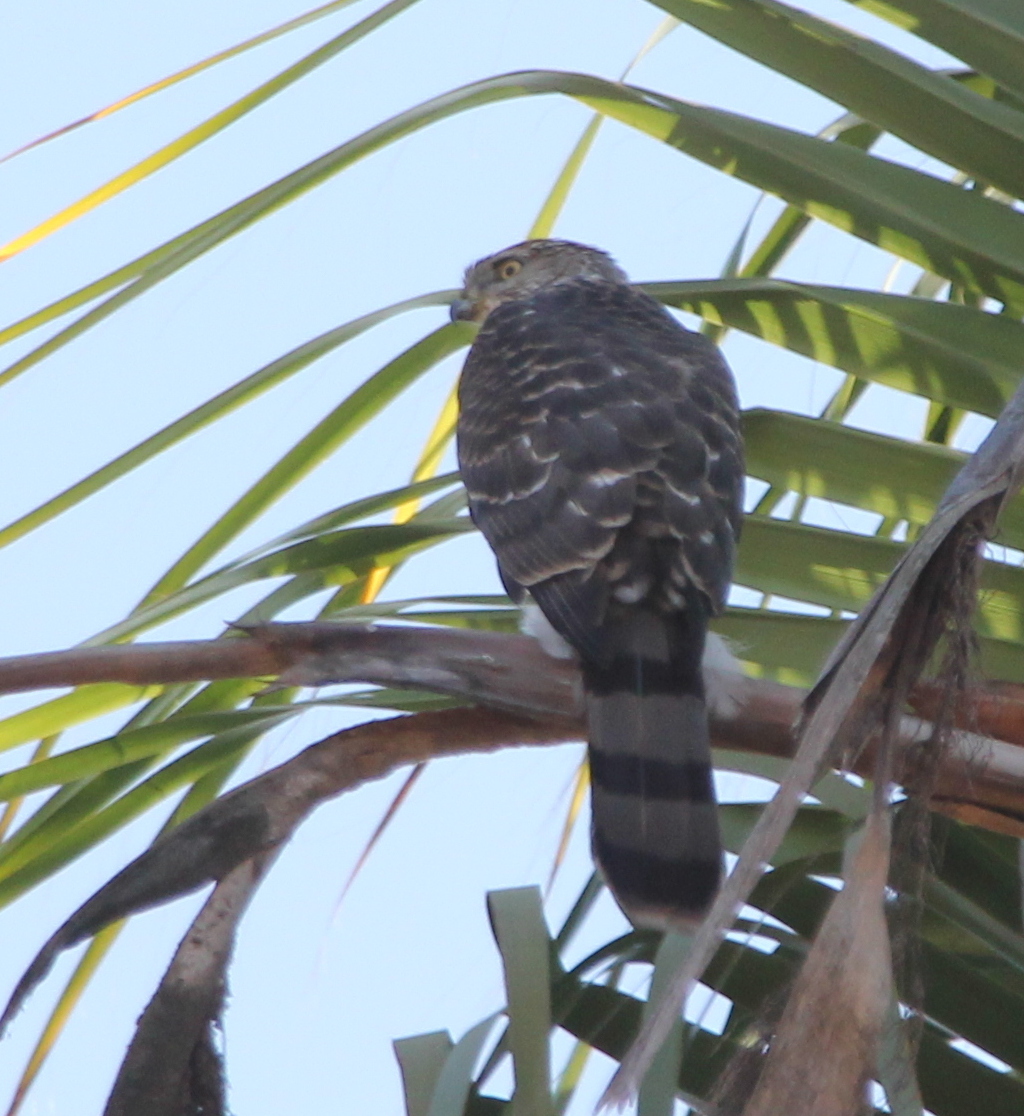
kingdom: Animalia
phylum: Chordata
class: Aves
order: Accipitriformes
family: Accipitridae
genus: Accipiter
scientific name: Accipiter cooperii
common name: Cooper's hawk
